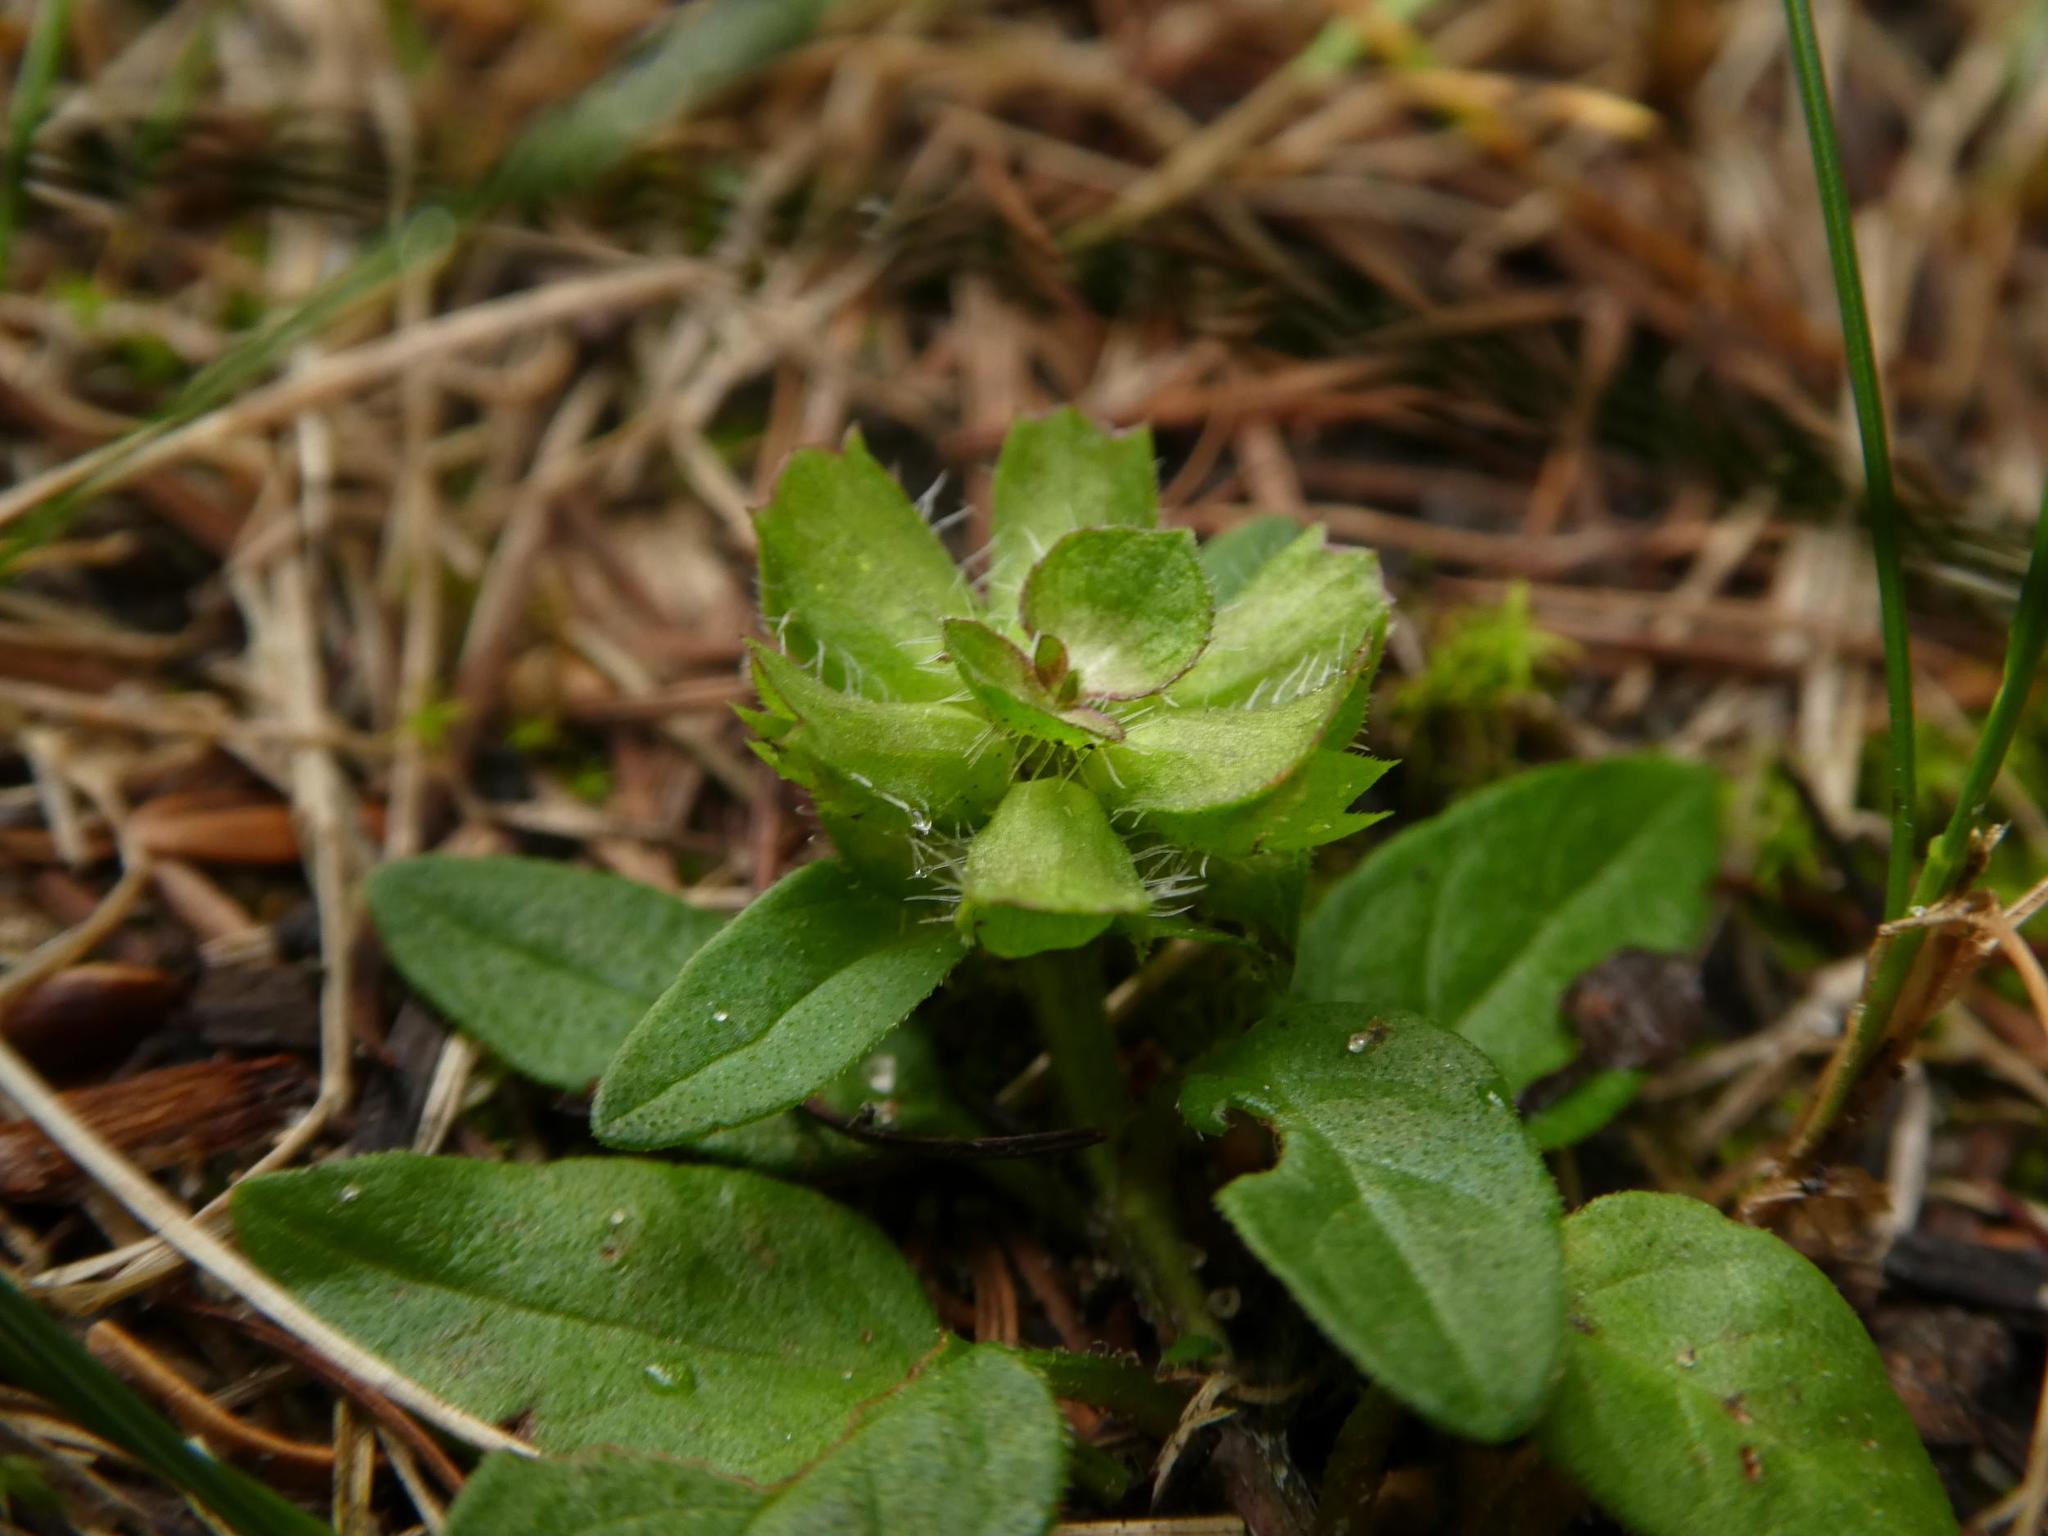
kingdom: Plantae
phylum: Tracheophyta
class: Magnoliopsida
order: Lamiales
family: Lamiaceae
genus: Prunella
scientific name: Prunella vulgaris
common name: Heal-all
